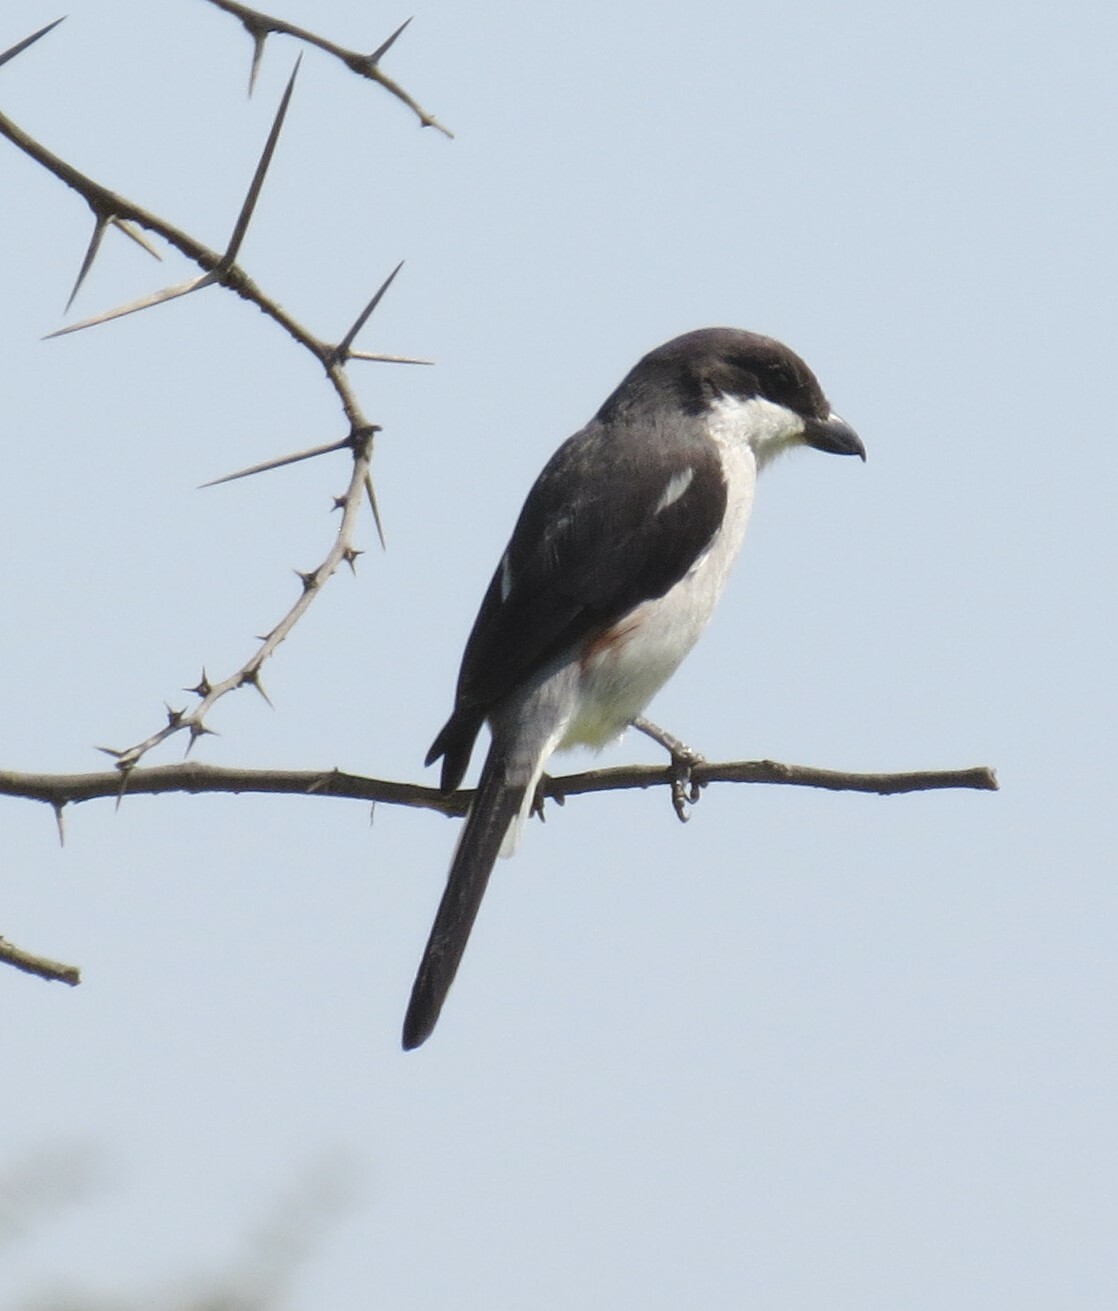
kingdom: Animalia
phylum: Chordata
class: Aves
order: Passeriformes
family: Laniidae
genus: Lanius
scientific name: Lanius collaris
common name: Southern fiscal
